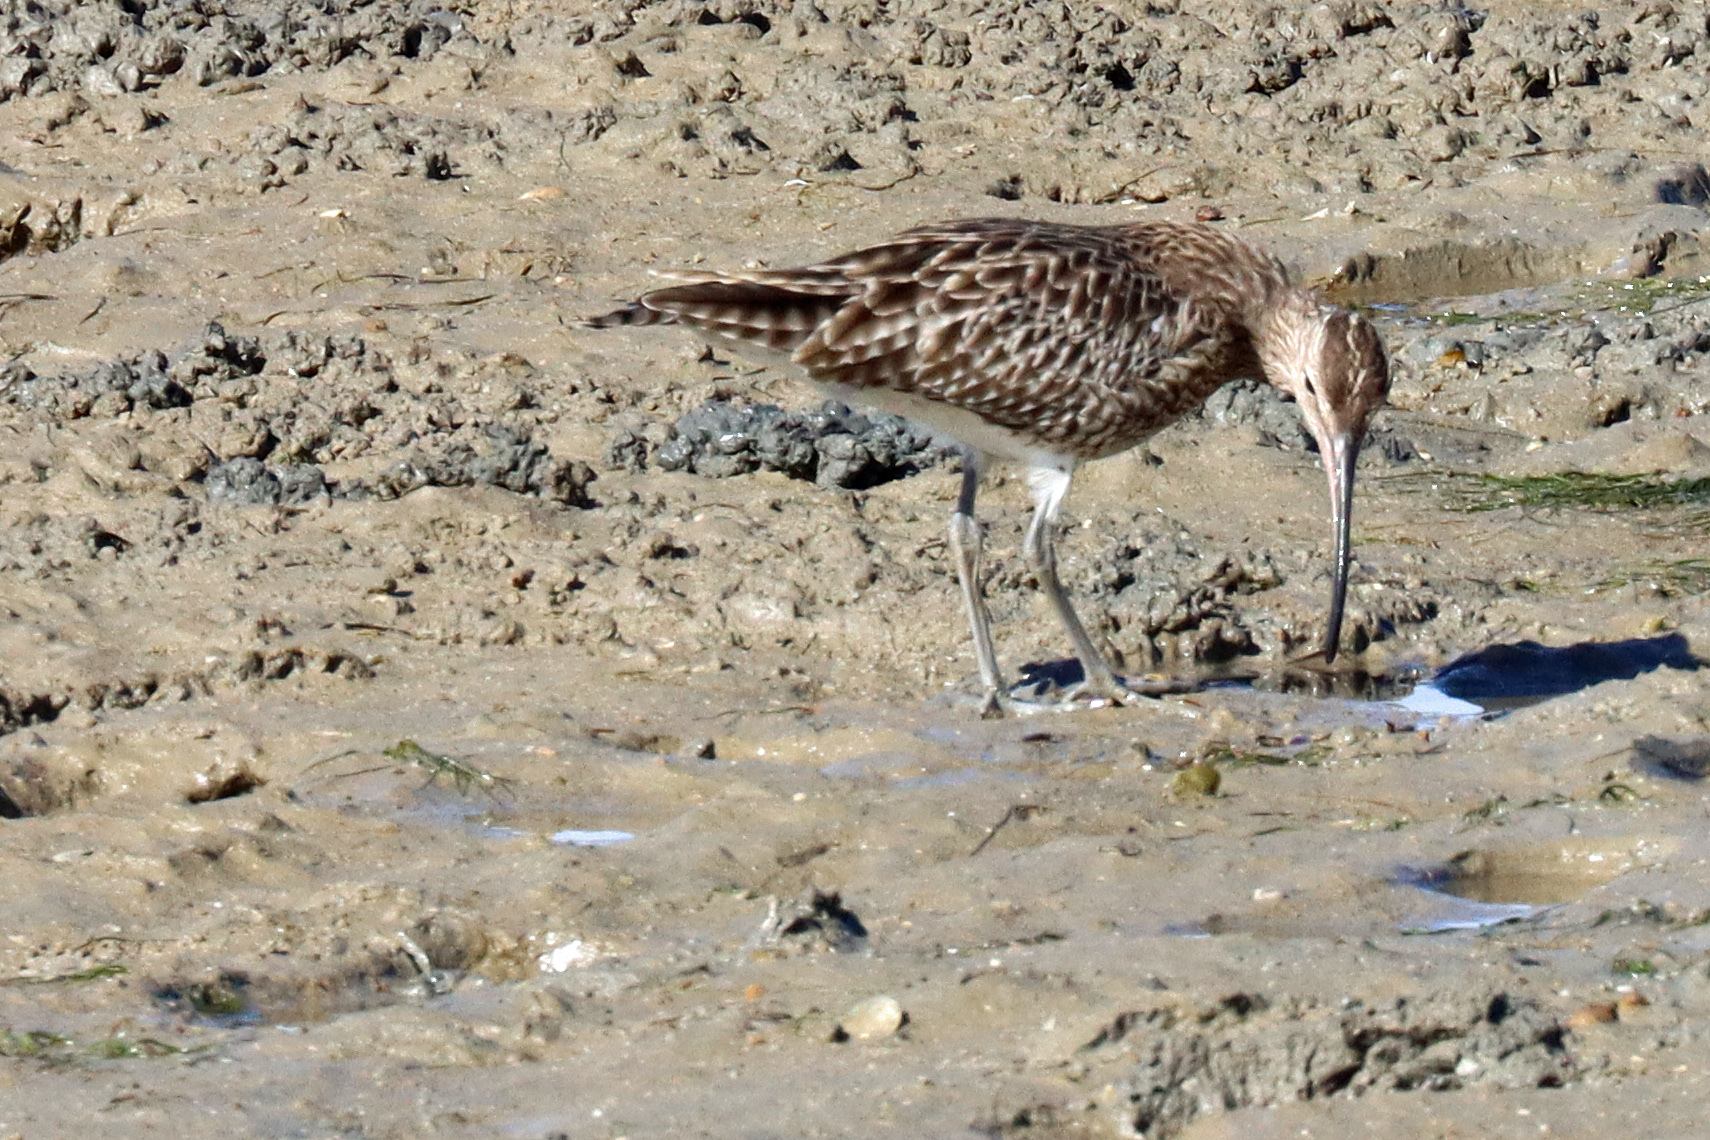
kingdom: Animalia
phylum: Chordata
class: Aves
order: Charadriiformes
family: Scolopacidae
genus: Numenius
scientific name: Numenius phaeopus
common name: Whimbrel
